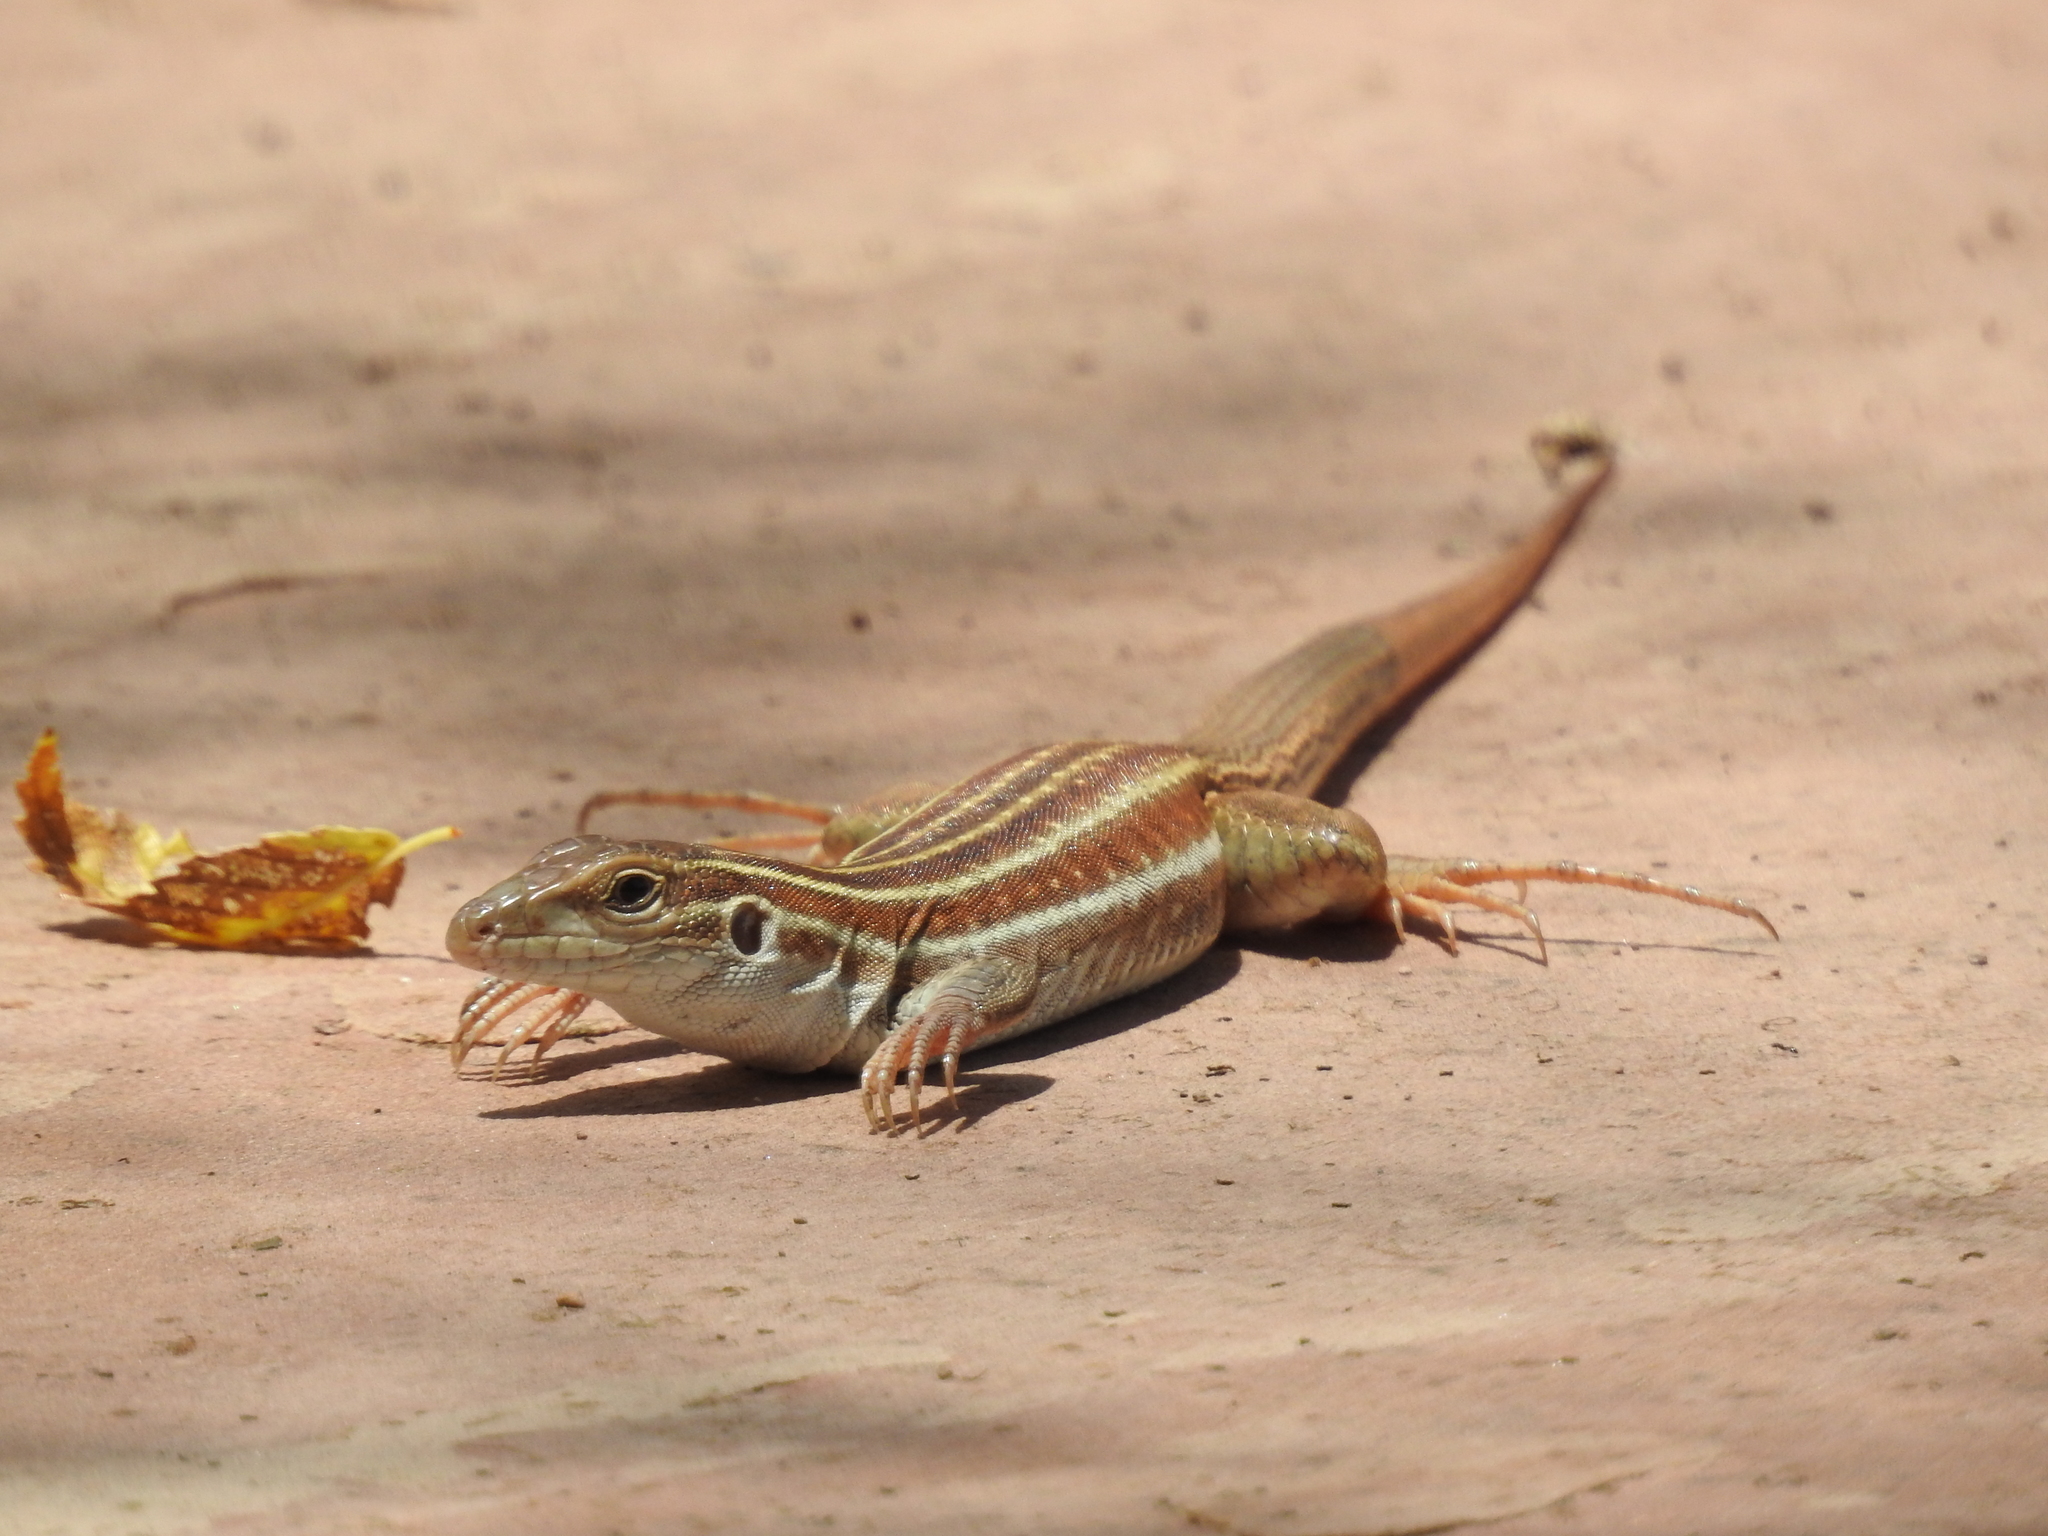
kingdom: Animalia
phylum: Chordata
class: Squamata
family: Teiidae
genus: Aspidoscelis
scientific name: Aspidoscelis sonorae
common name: Sonoran spotted whiptail
